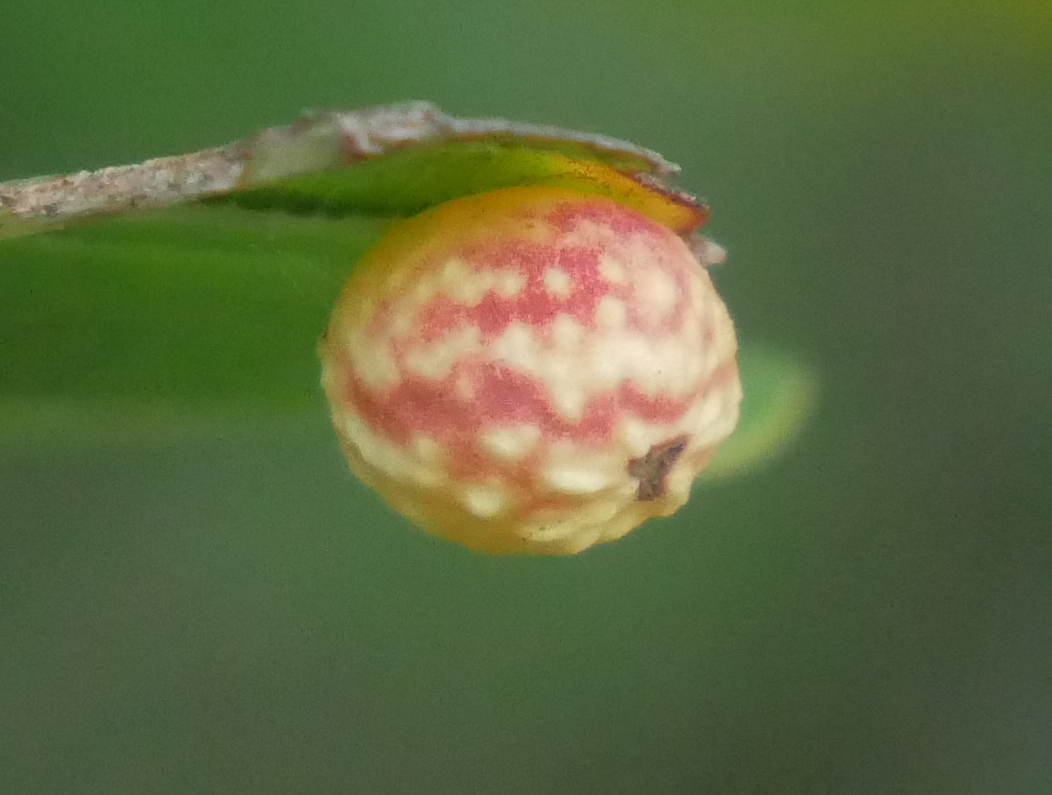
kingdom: Animalia
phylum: Arthropoda
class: Insecta
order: Hymenoptera
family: Cynipidae
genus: Cynips
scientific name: Cynips longiventris
